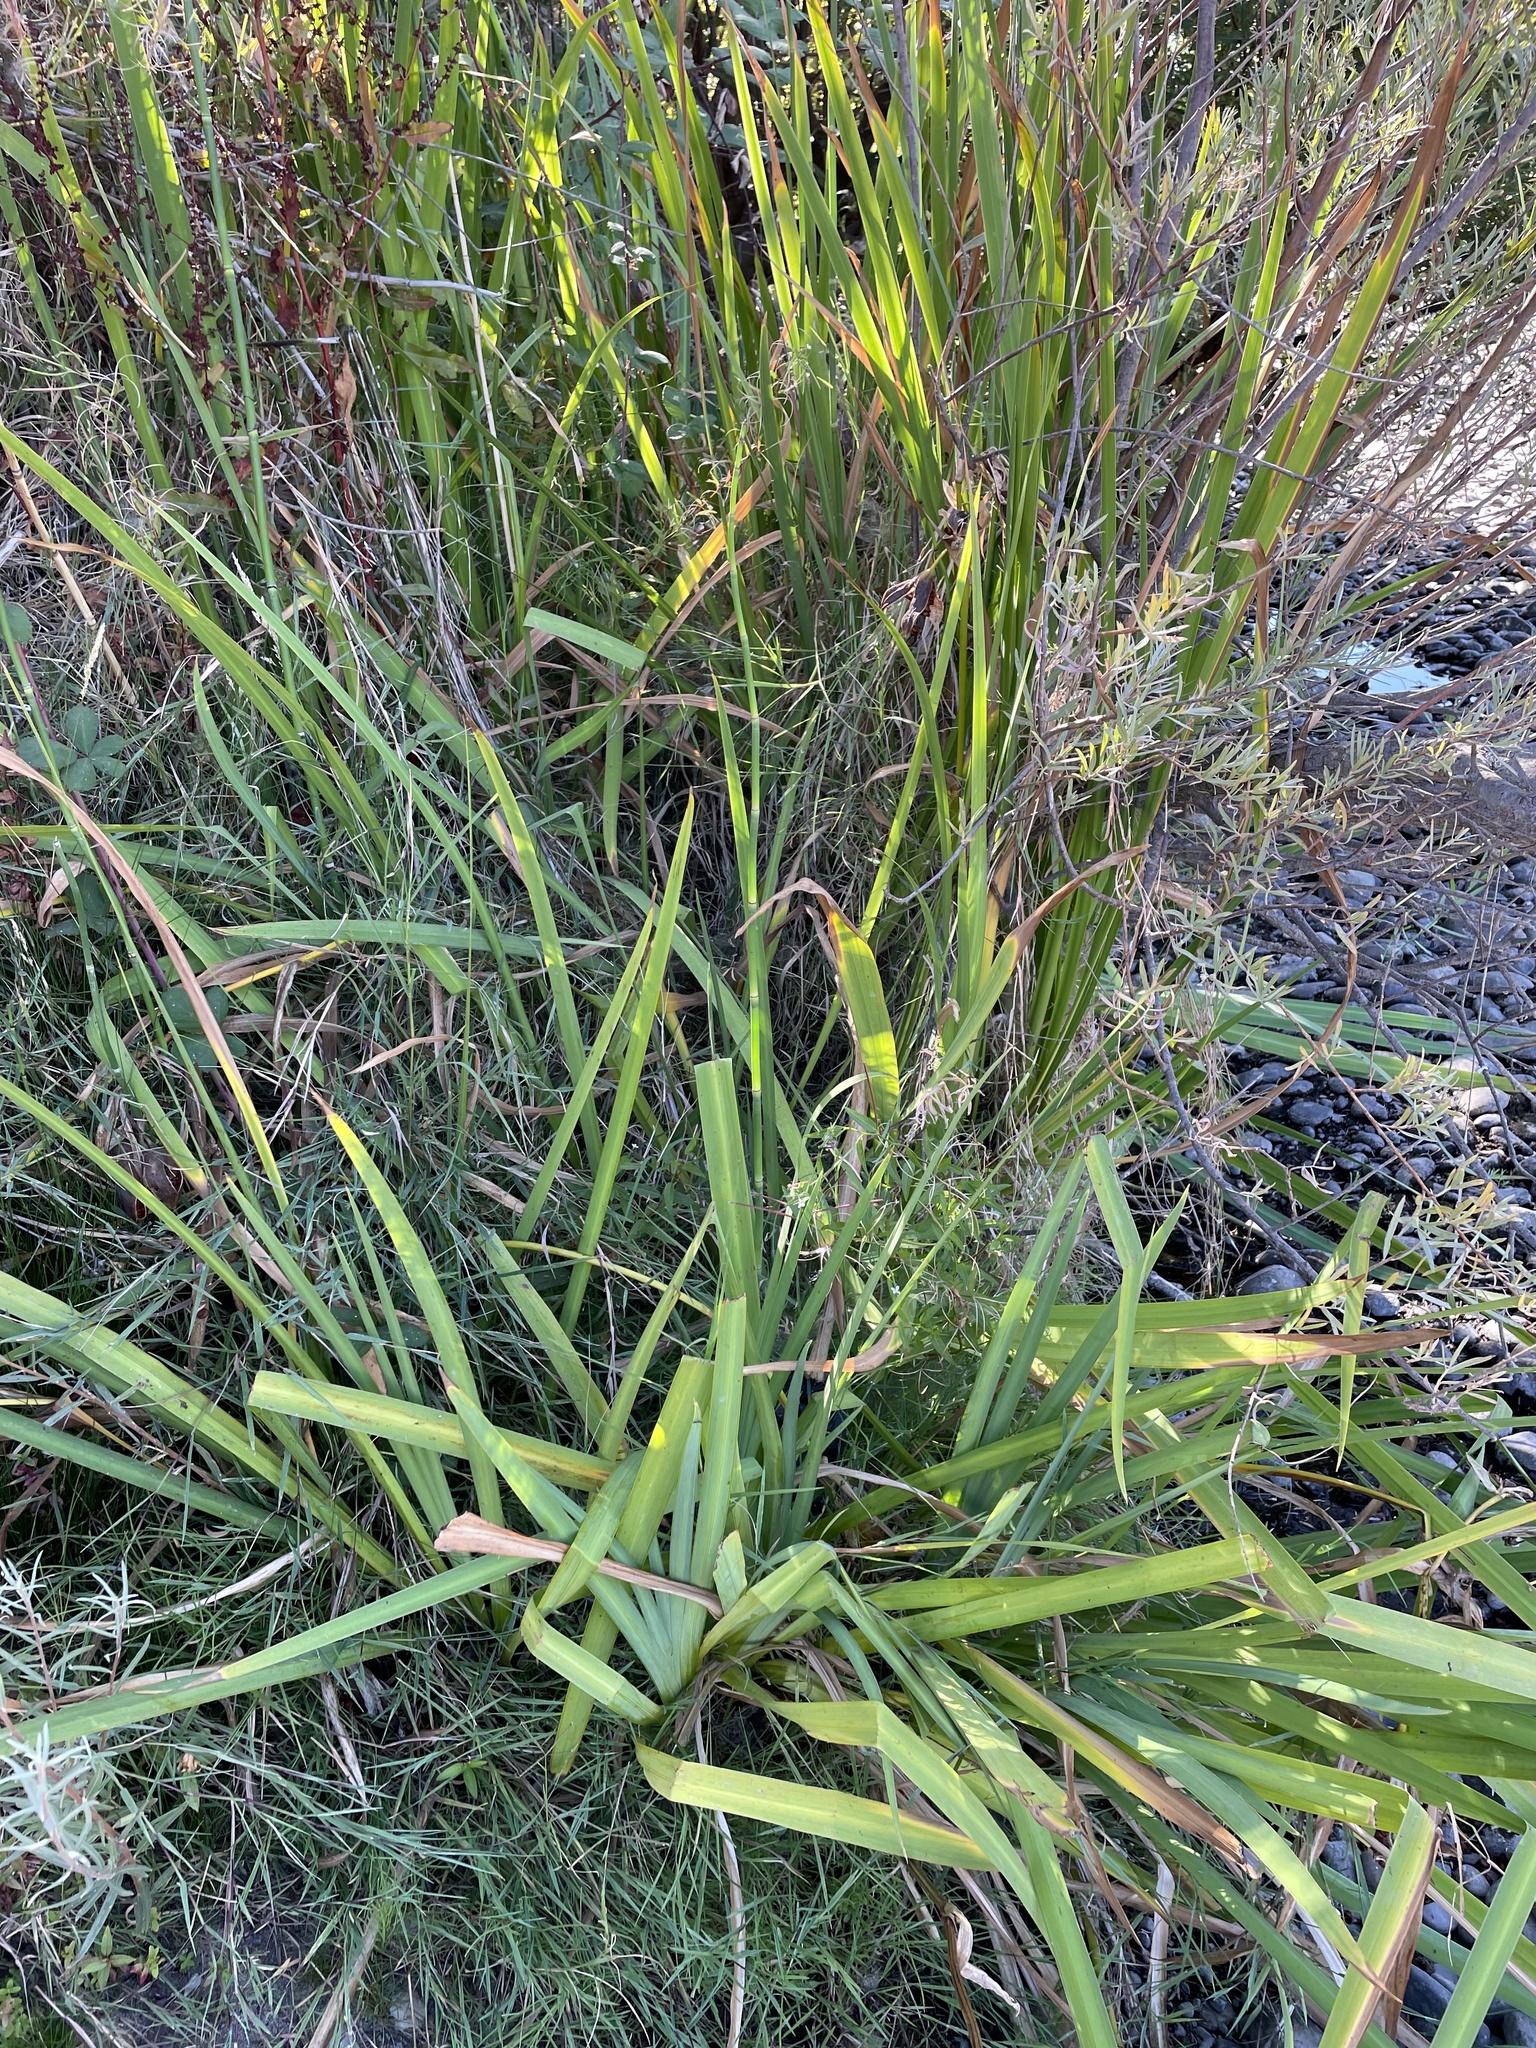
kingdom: Plantae
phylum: Tracheophyta
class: Liliopsida
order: Asparagales
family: Iridaceae
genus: Iris
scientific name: Iris pseudacorus
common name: Yellow flag
